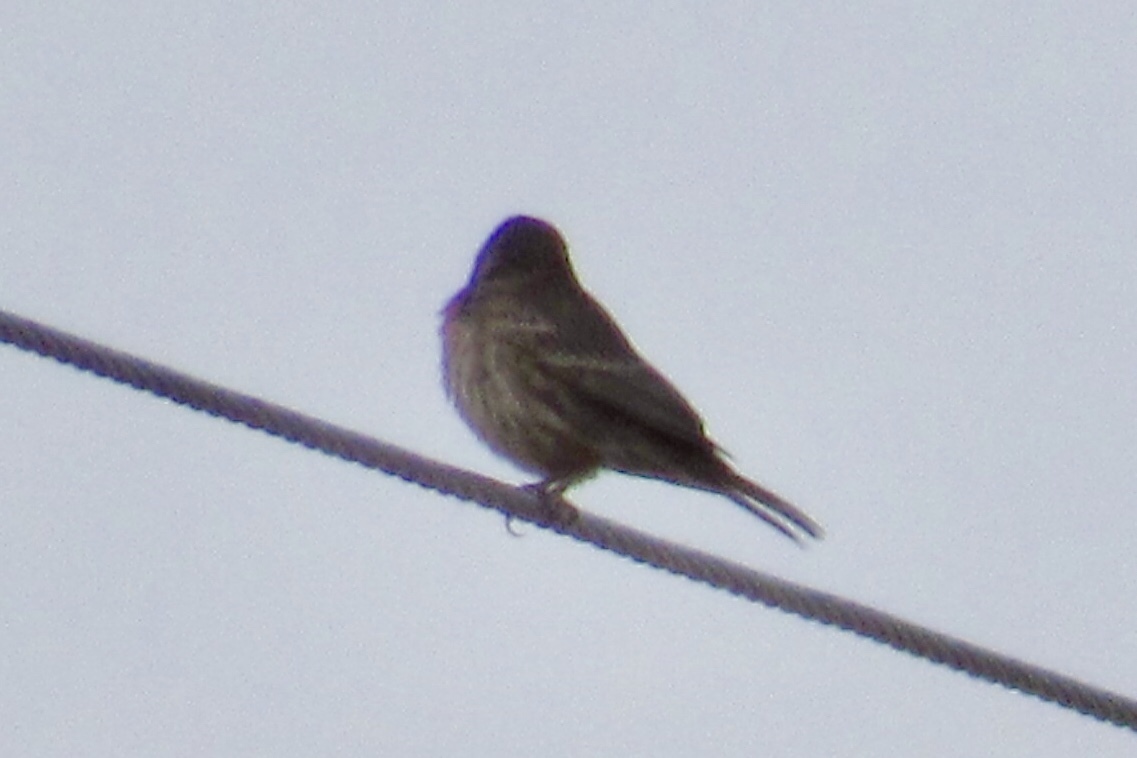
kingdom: Animalia
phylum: Chordata
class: Aves
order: Passeriformes
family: Fringillidae
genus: Haemorhous
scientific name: Haemorhous mexicanus
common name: House finch
